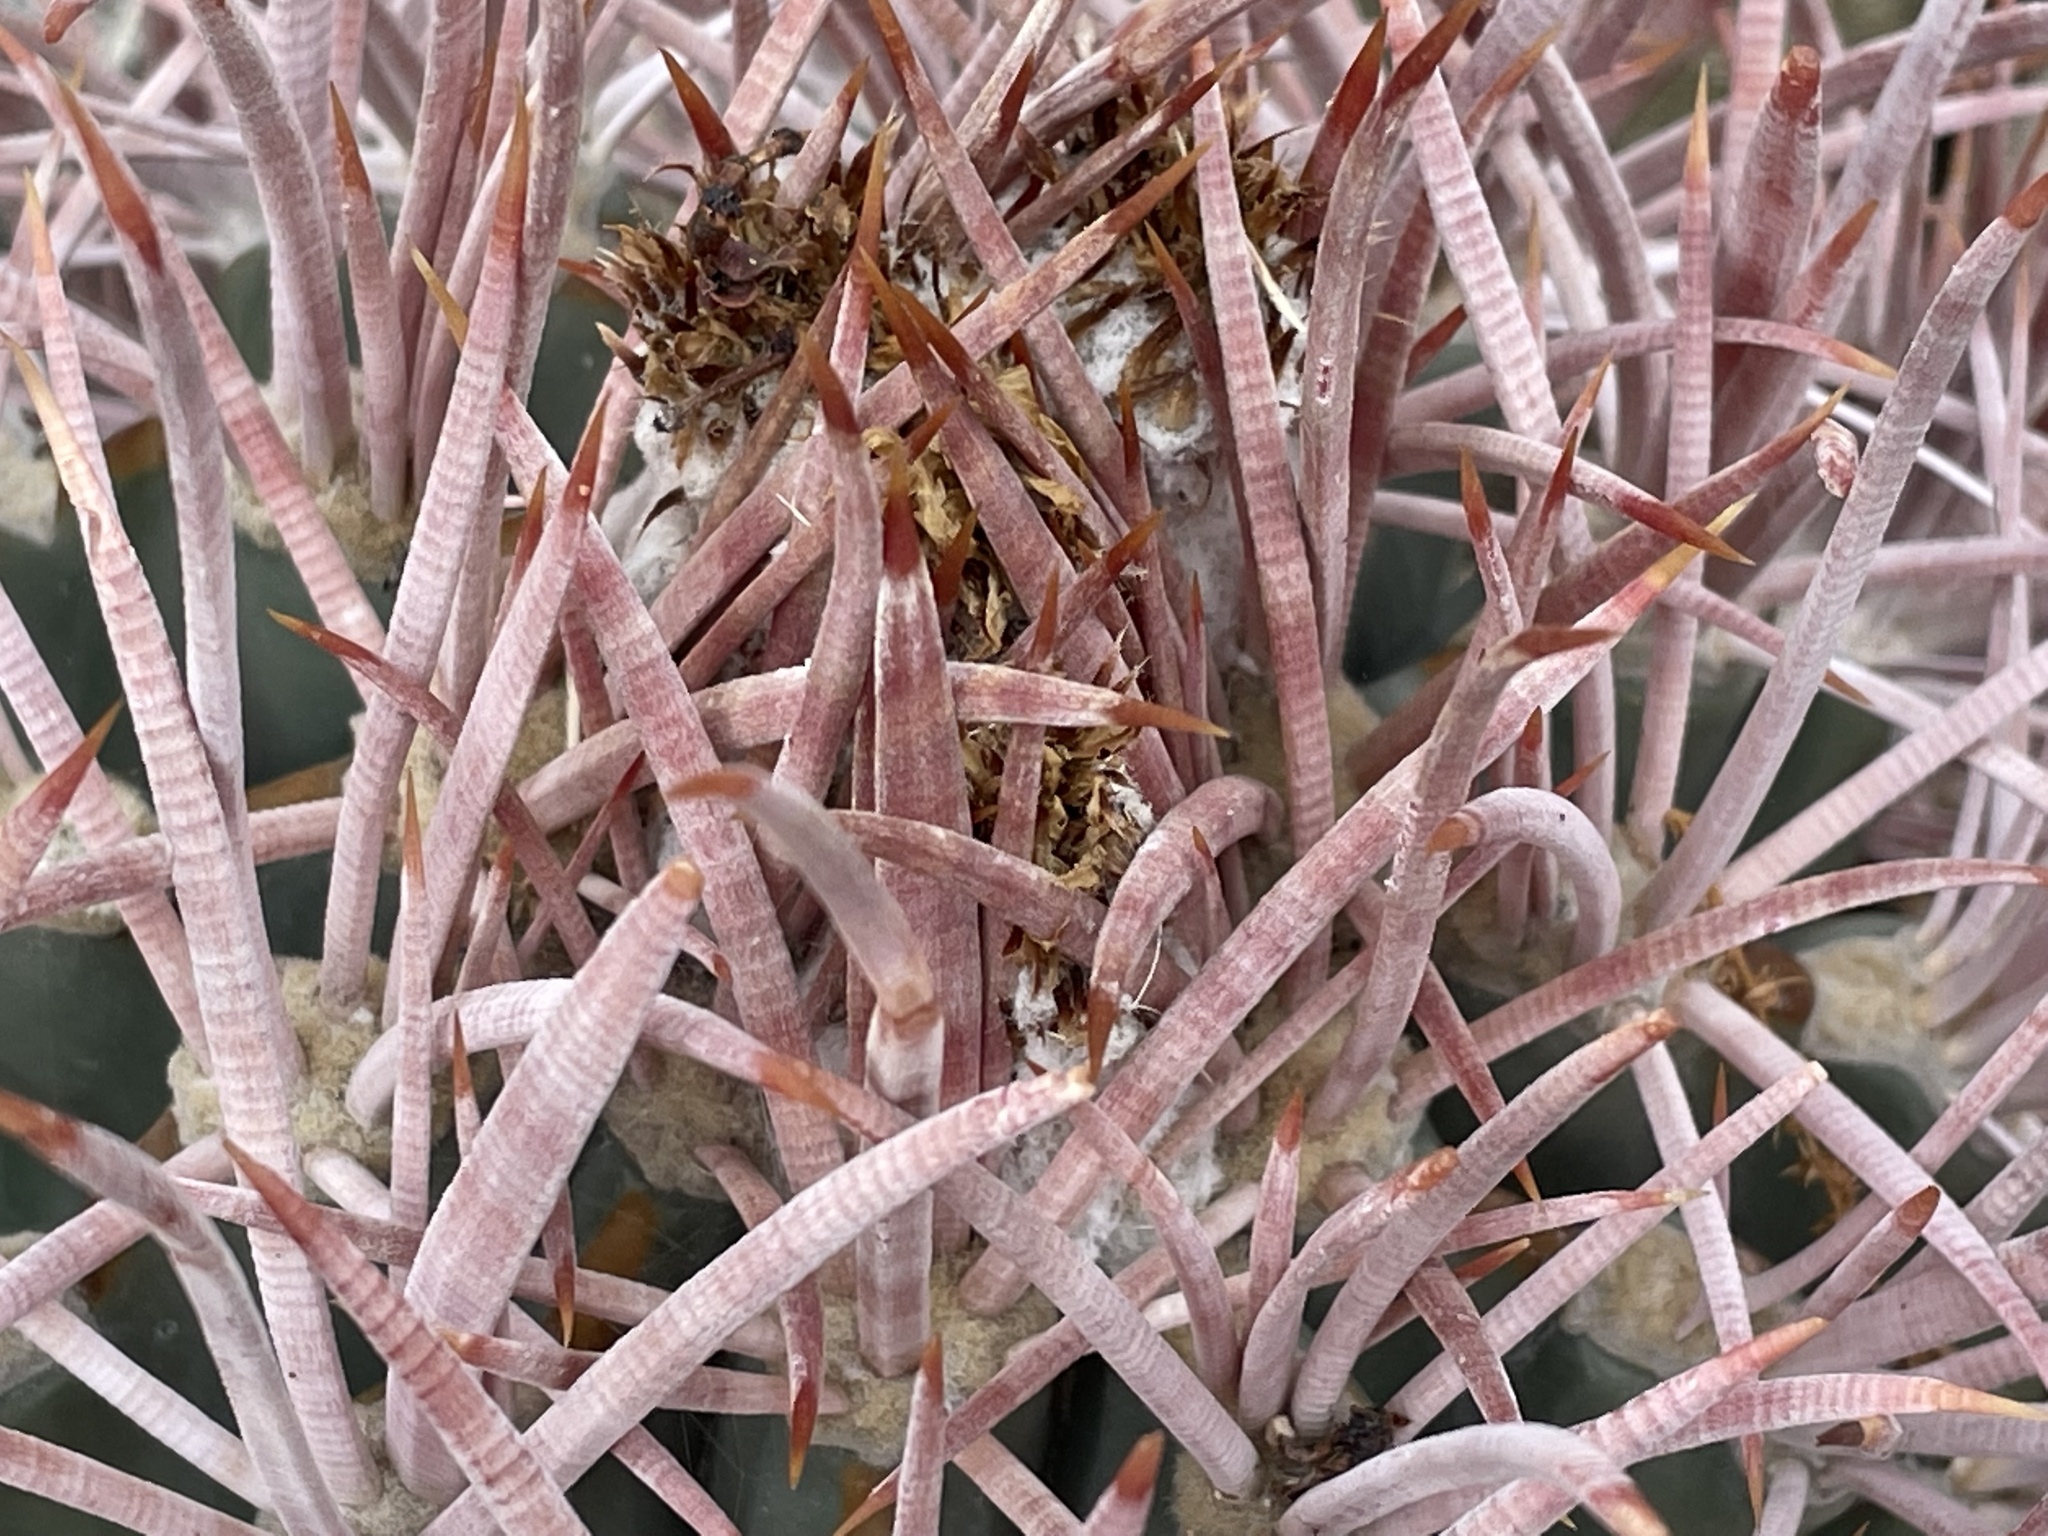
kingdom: Plantae
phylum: Tracheophyta
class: Magnoliopsida
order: Caryophyllales
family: Cactaceae
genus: Echinocactus
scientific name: Echinocactus polycephalus
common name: Cottontop cactus
